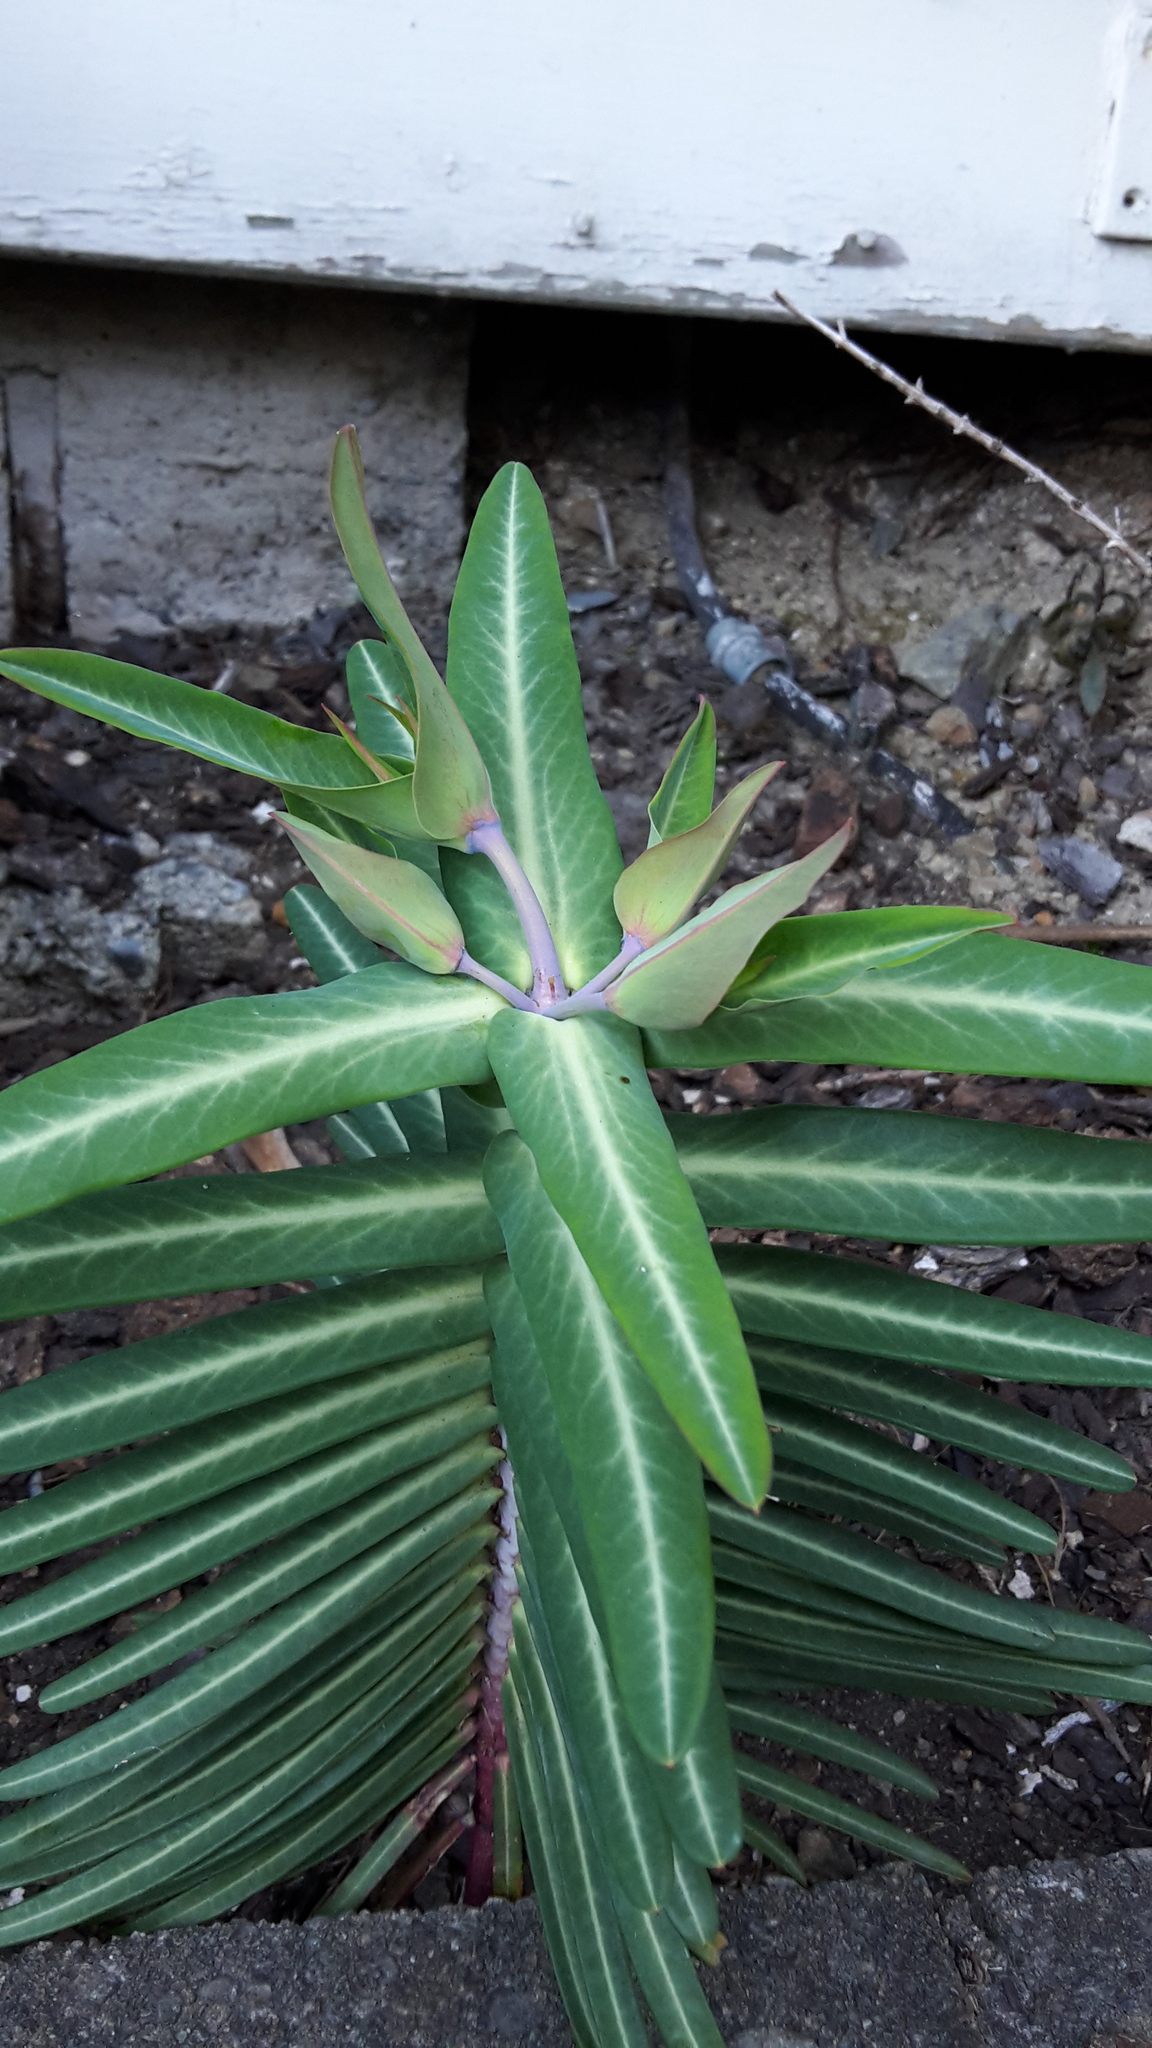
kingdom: Plantae
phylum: Tracheophyta
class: Magnoliopsida
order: Malpighiales
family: Euphorbiaceae
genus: Euphorbia
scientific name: Euphorbia lathyris
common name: Caper spurge
